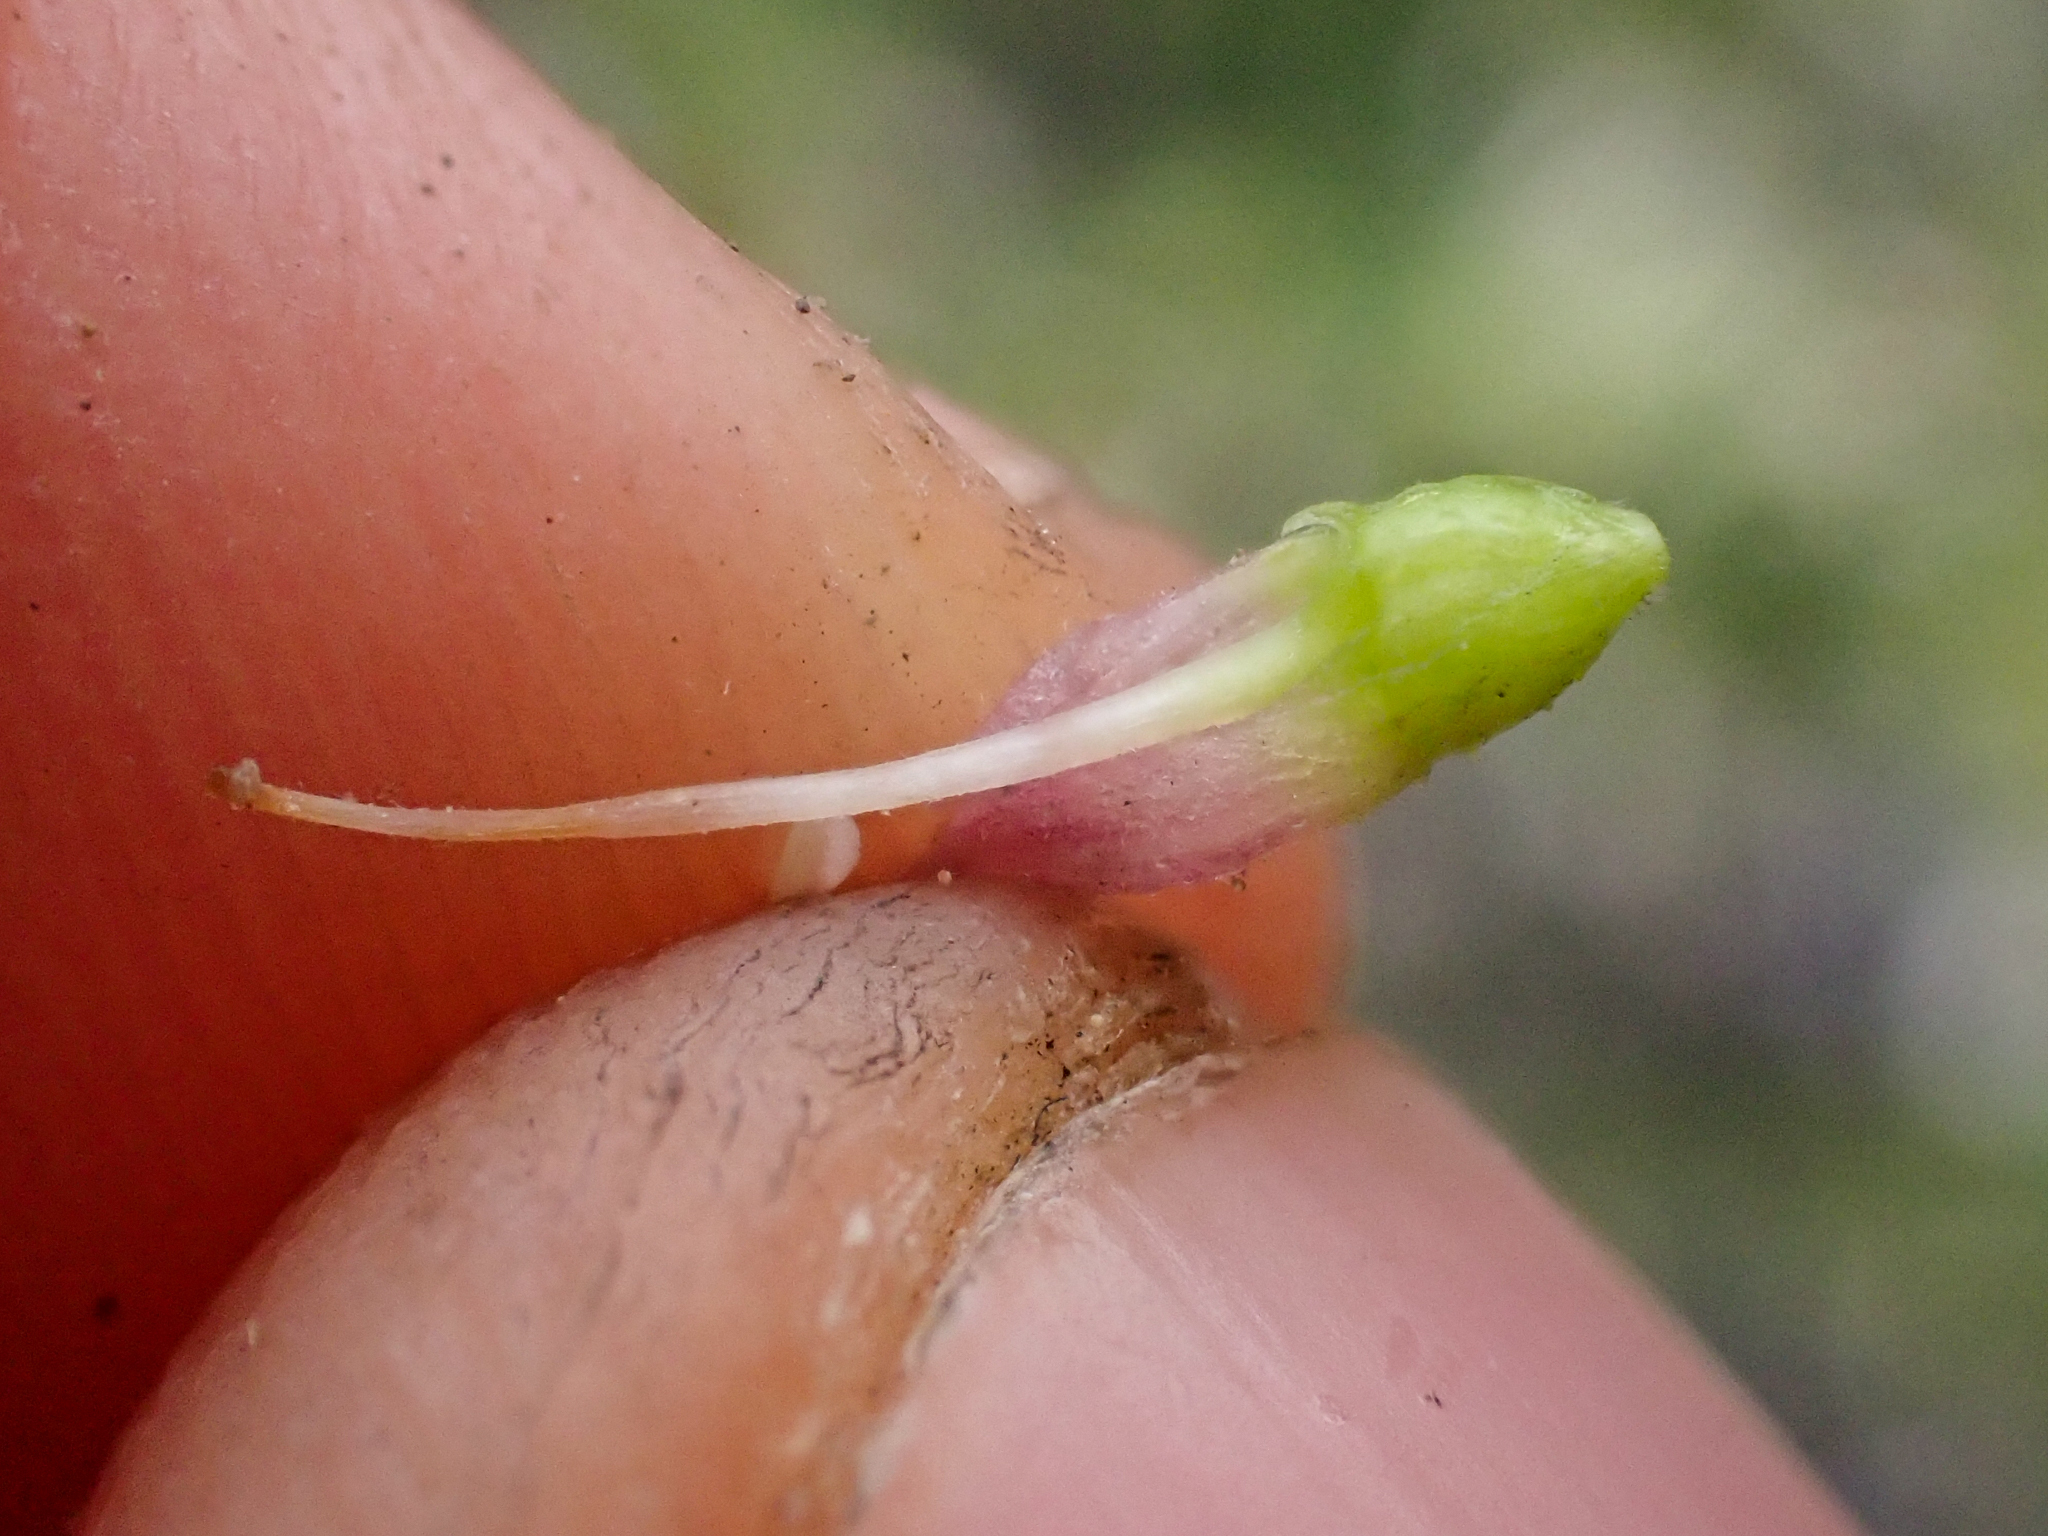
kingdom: Plantae
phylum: Tracheophyta
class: Magnoliopsida
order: Saxifragales
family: Grossulariaceae
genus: Ribes
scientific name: Ribes cereum
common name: Wax currant
